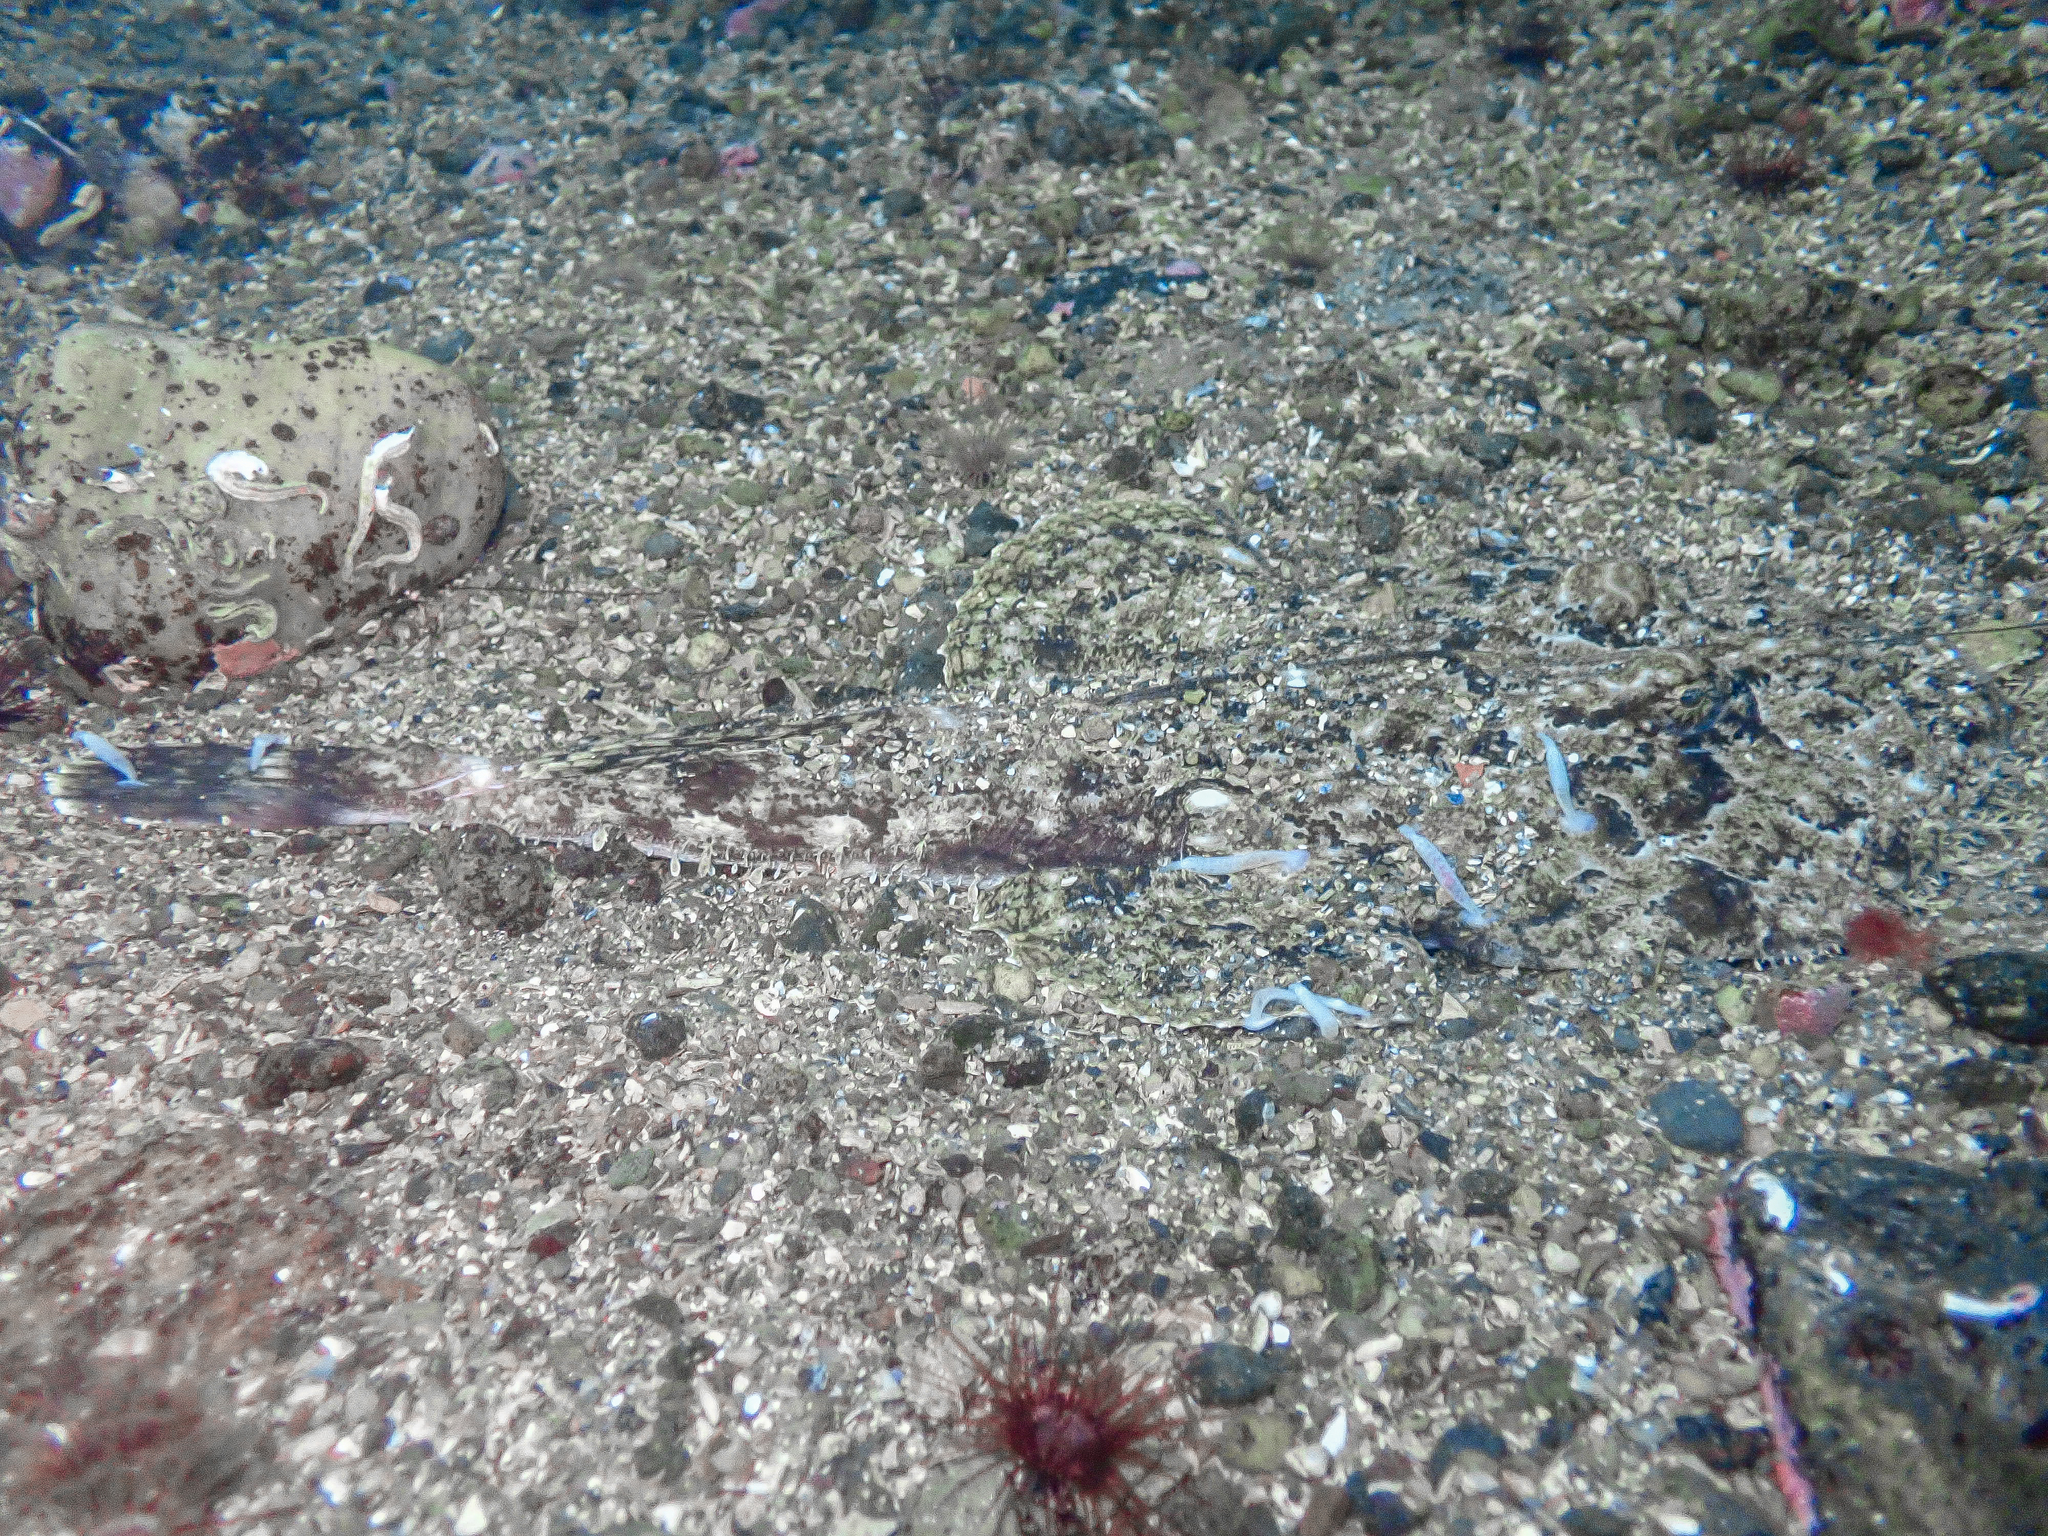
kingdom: Animalia
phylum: Annelida
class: Clitellata
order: Rhynchobdellida
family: Piscicolidae
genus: Calliobdella
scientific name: Calliobdella lophii
